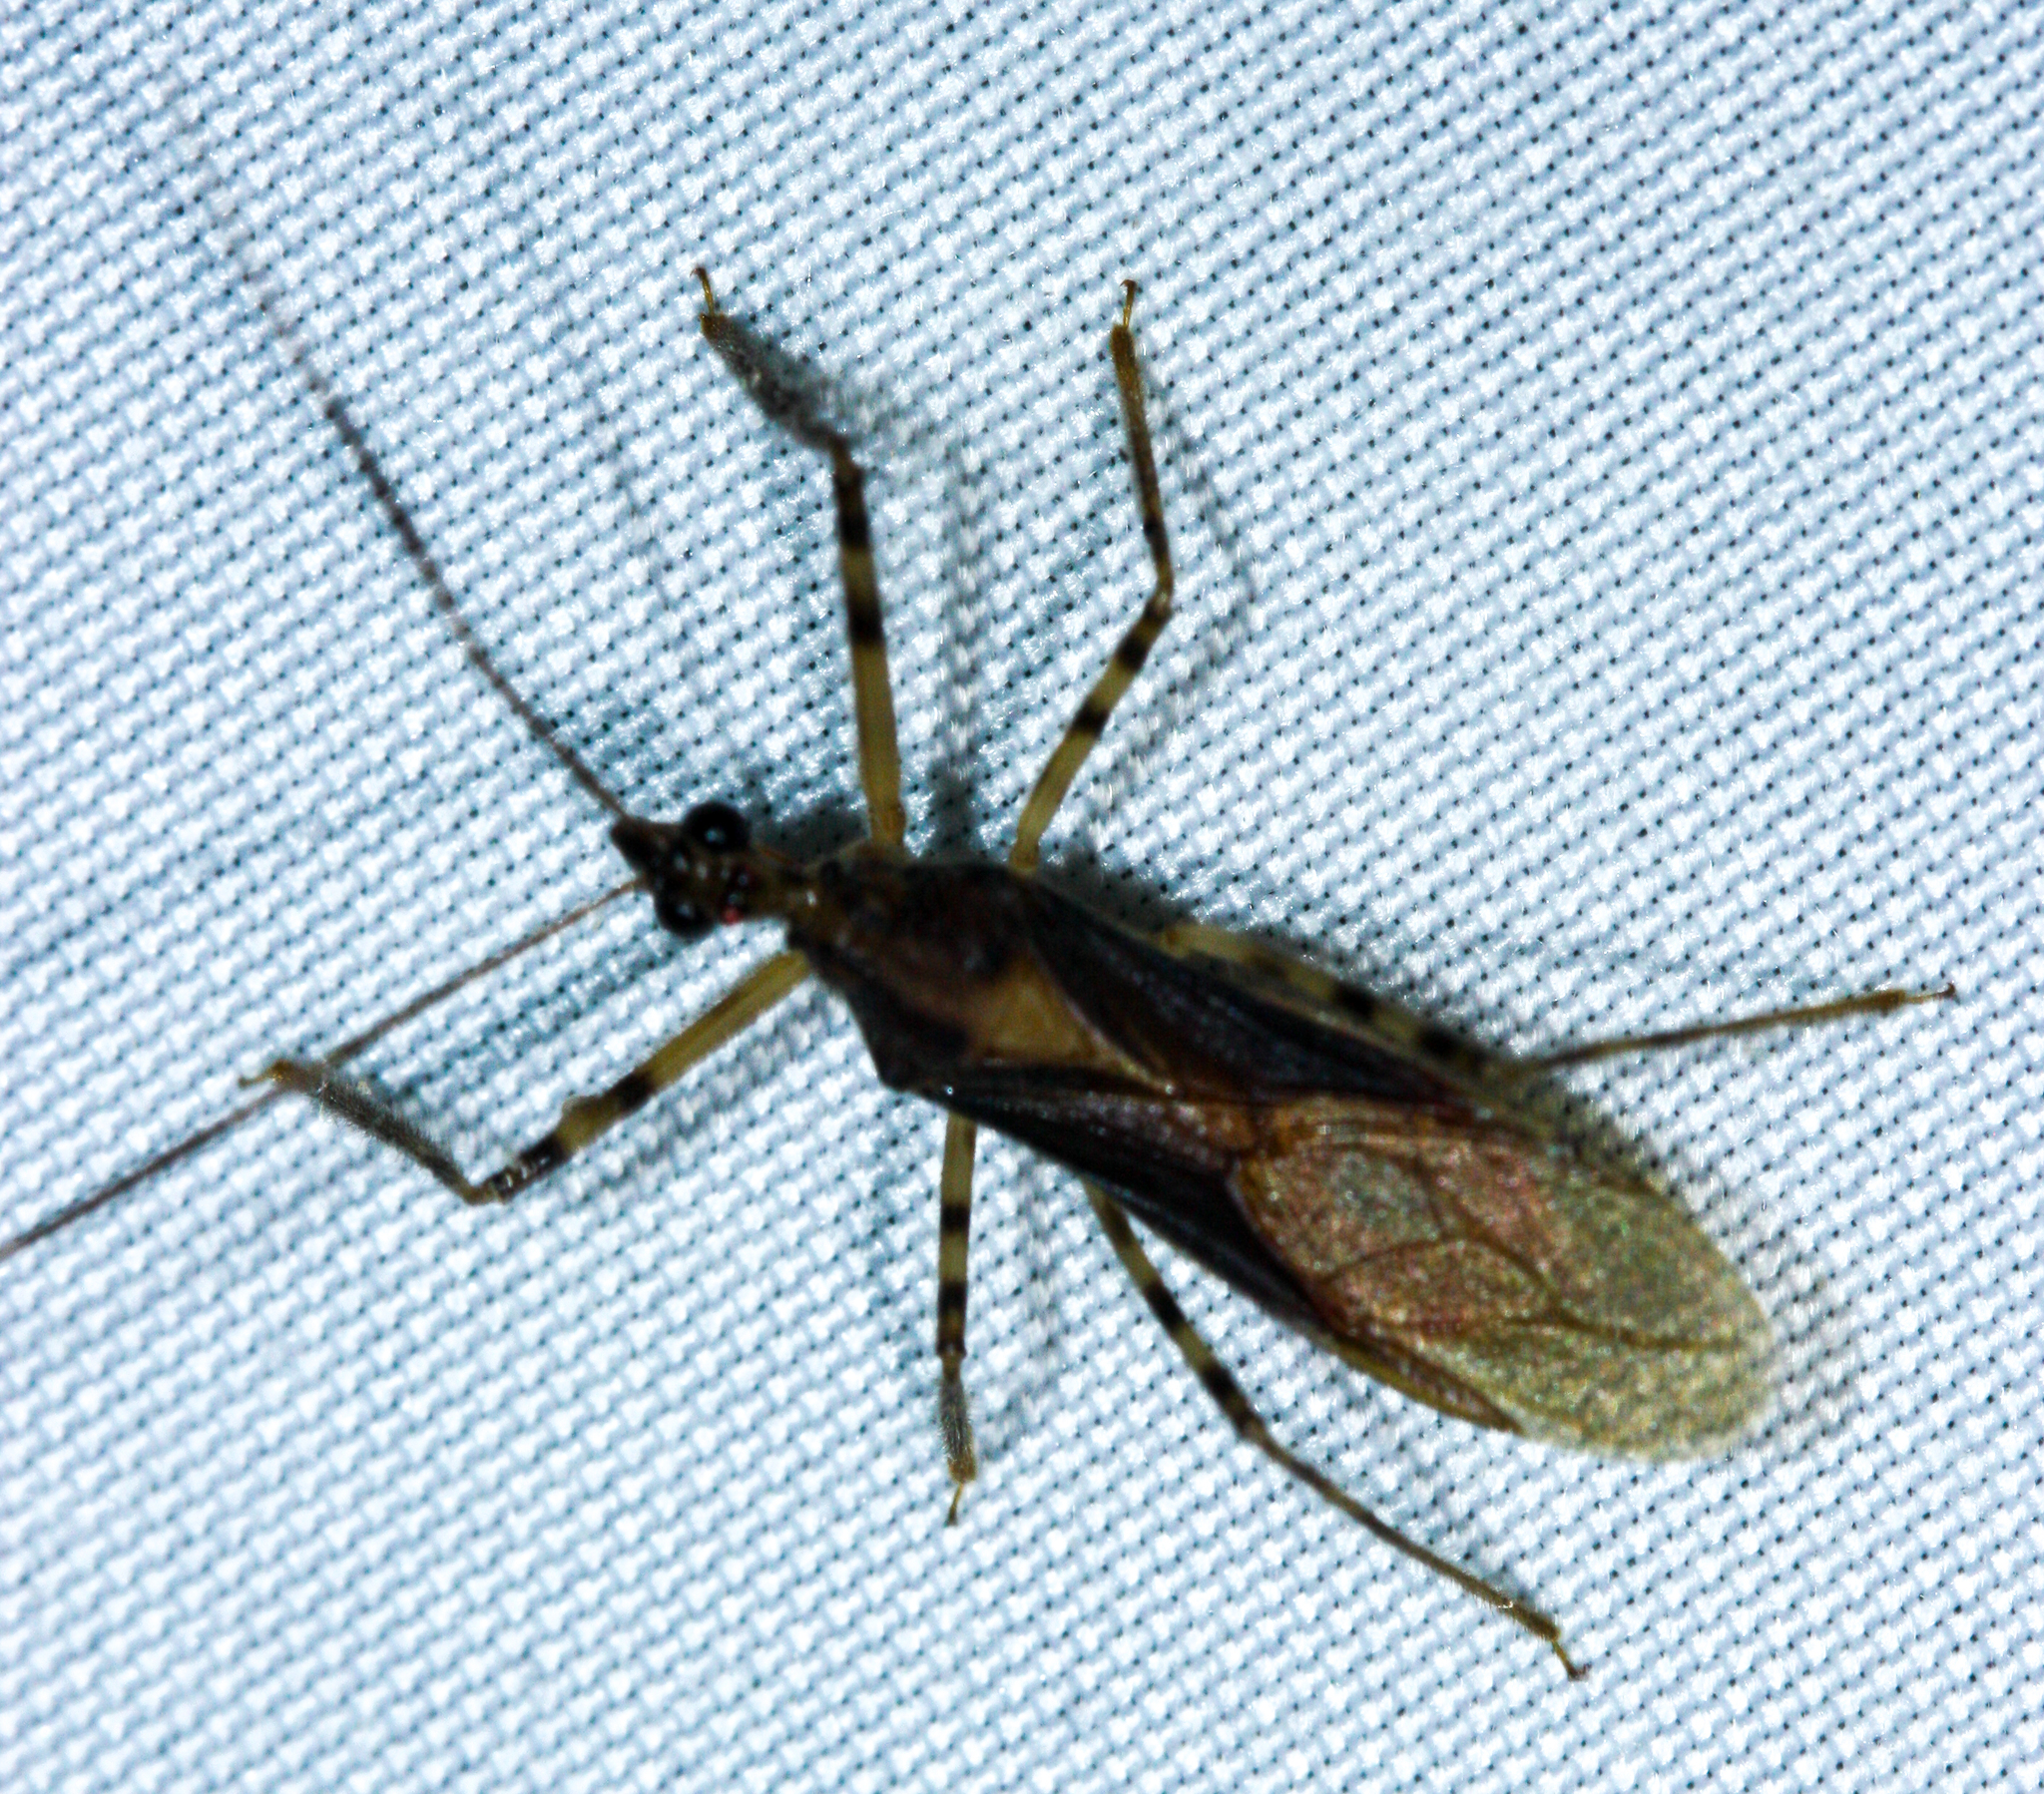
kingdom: Animalia
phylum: Arthropoda
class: Insecta
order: Hemiptera
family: Reduviidae
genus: Castolus
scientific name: Castolus ferox
